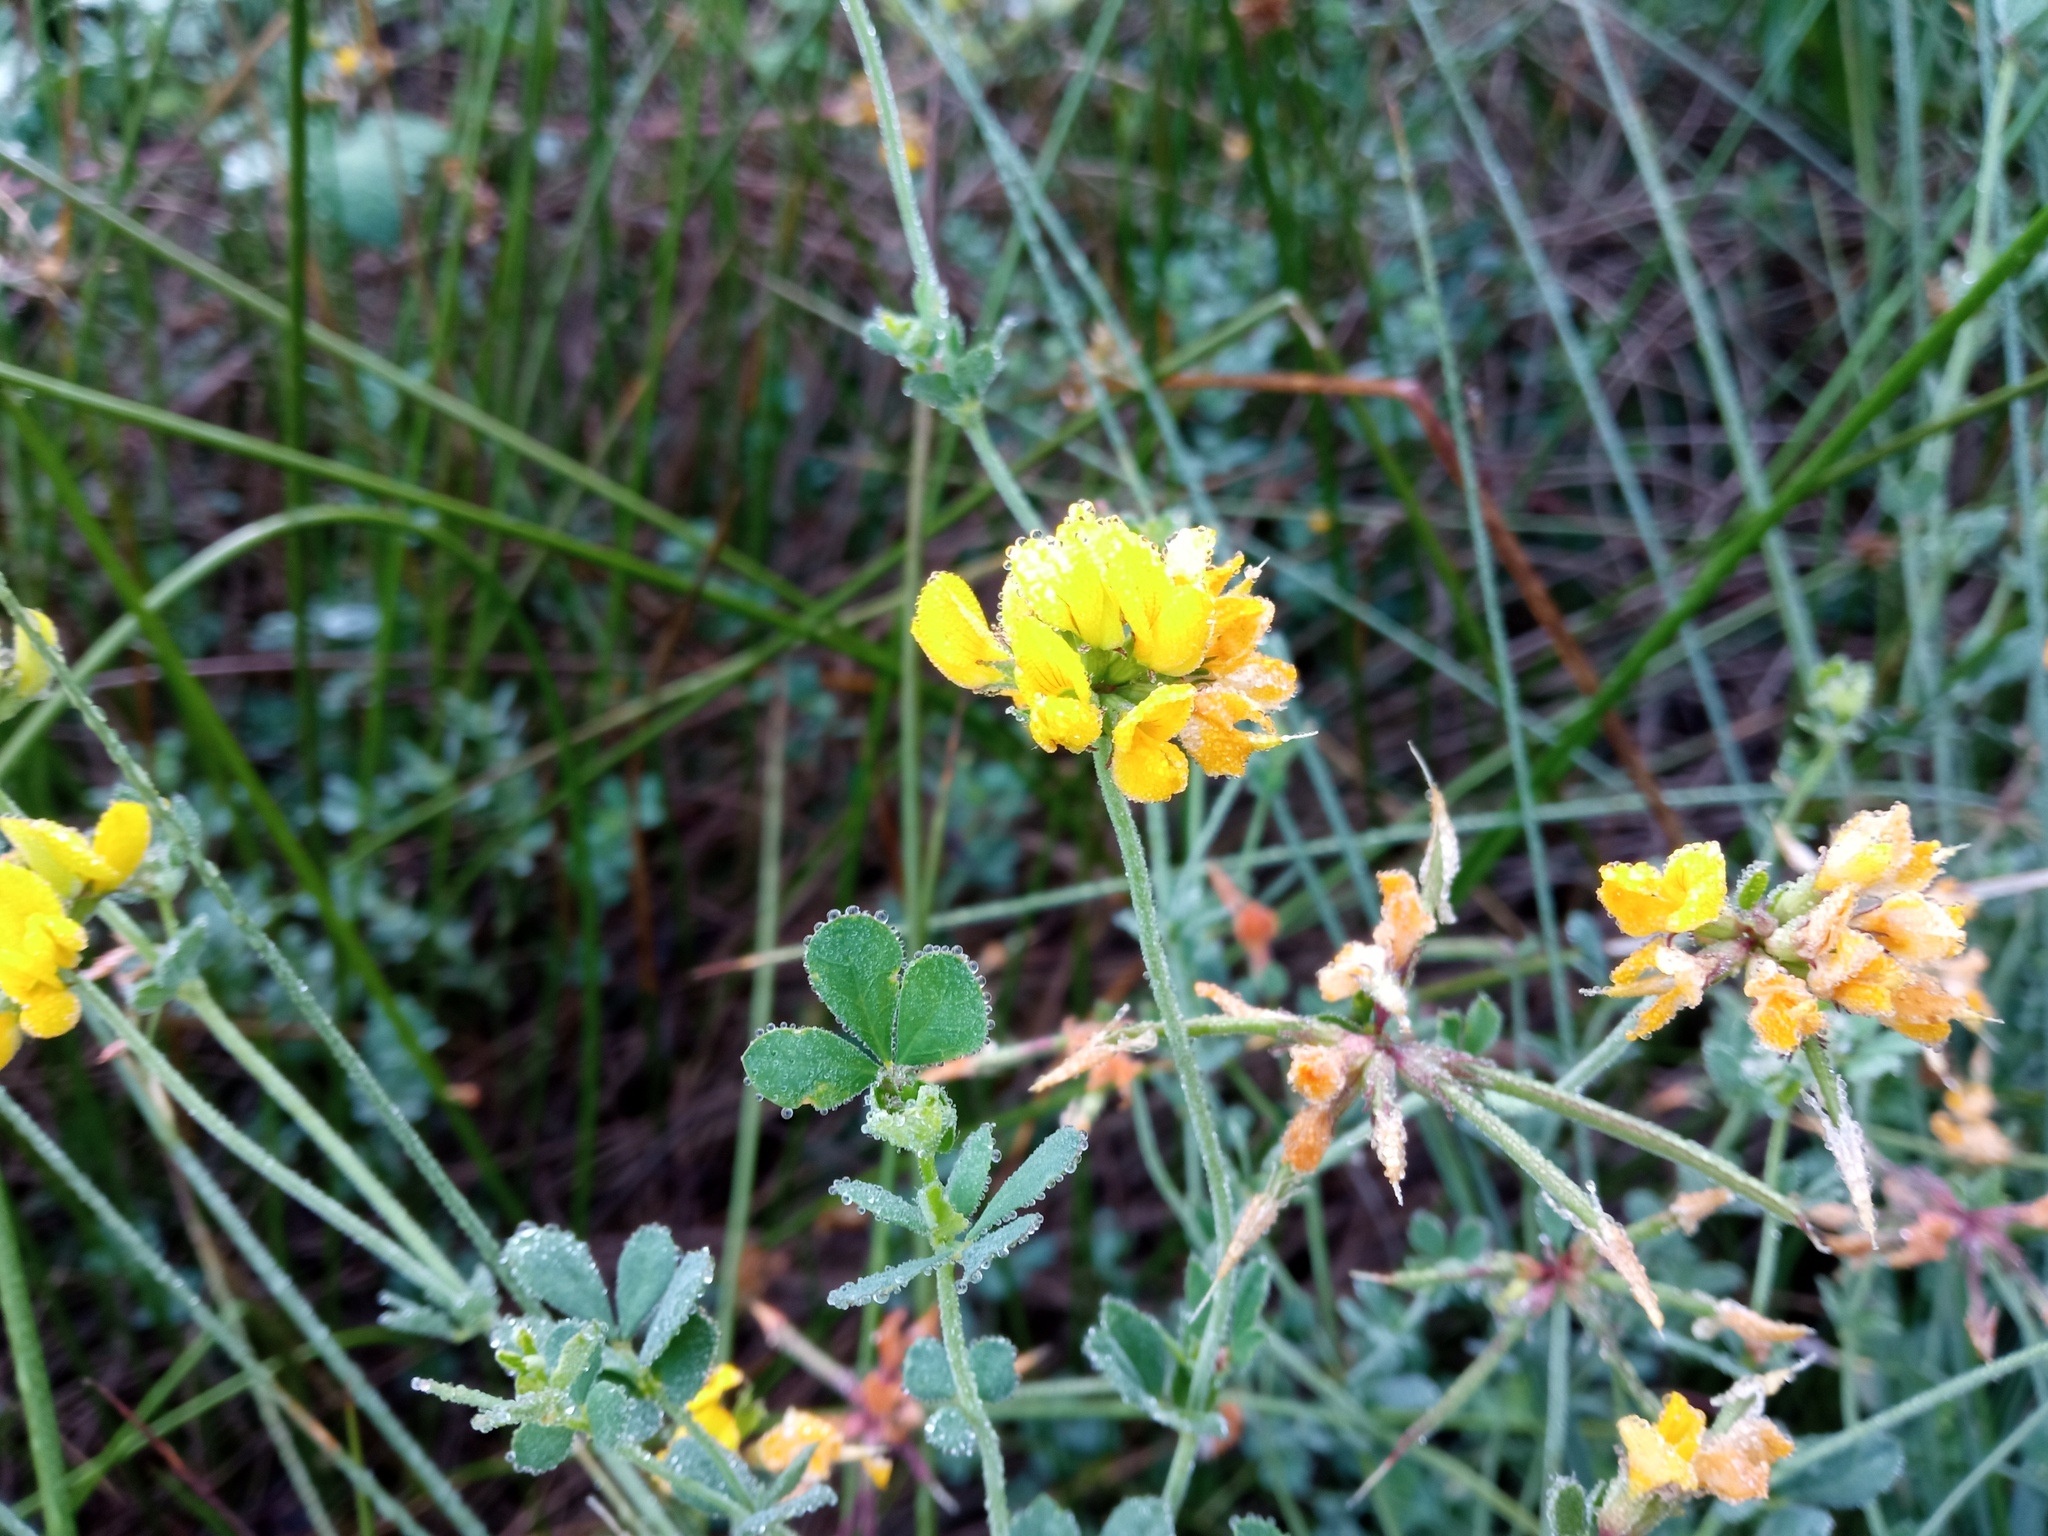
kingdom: Plantae
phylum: Tracheophyta
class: Magnoliopsida
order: Fabales
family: Fabaceae
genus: Lotus
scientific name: Lotus pedunculatus
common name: Greater birdsfoot-trefoil
